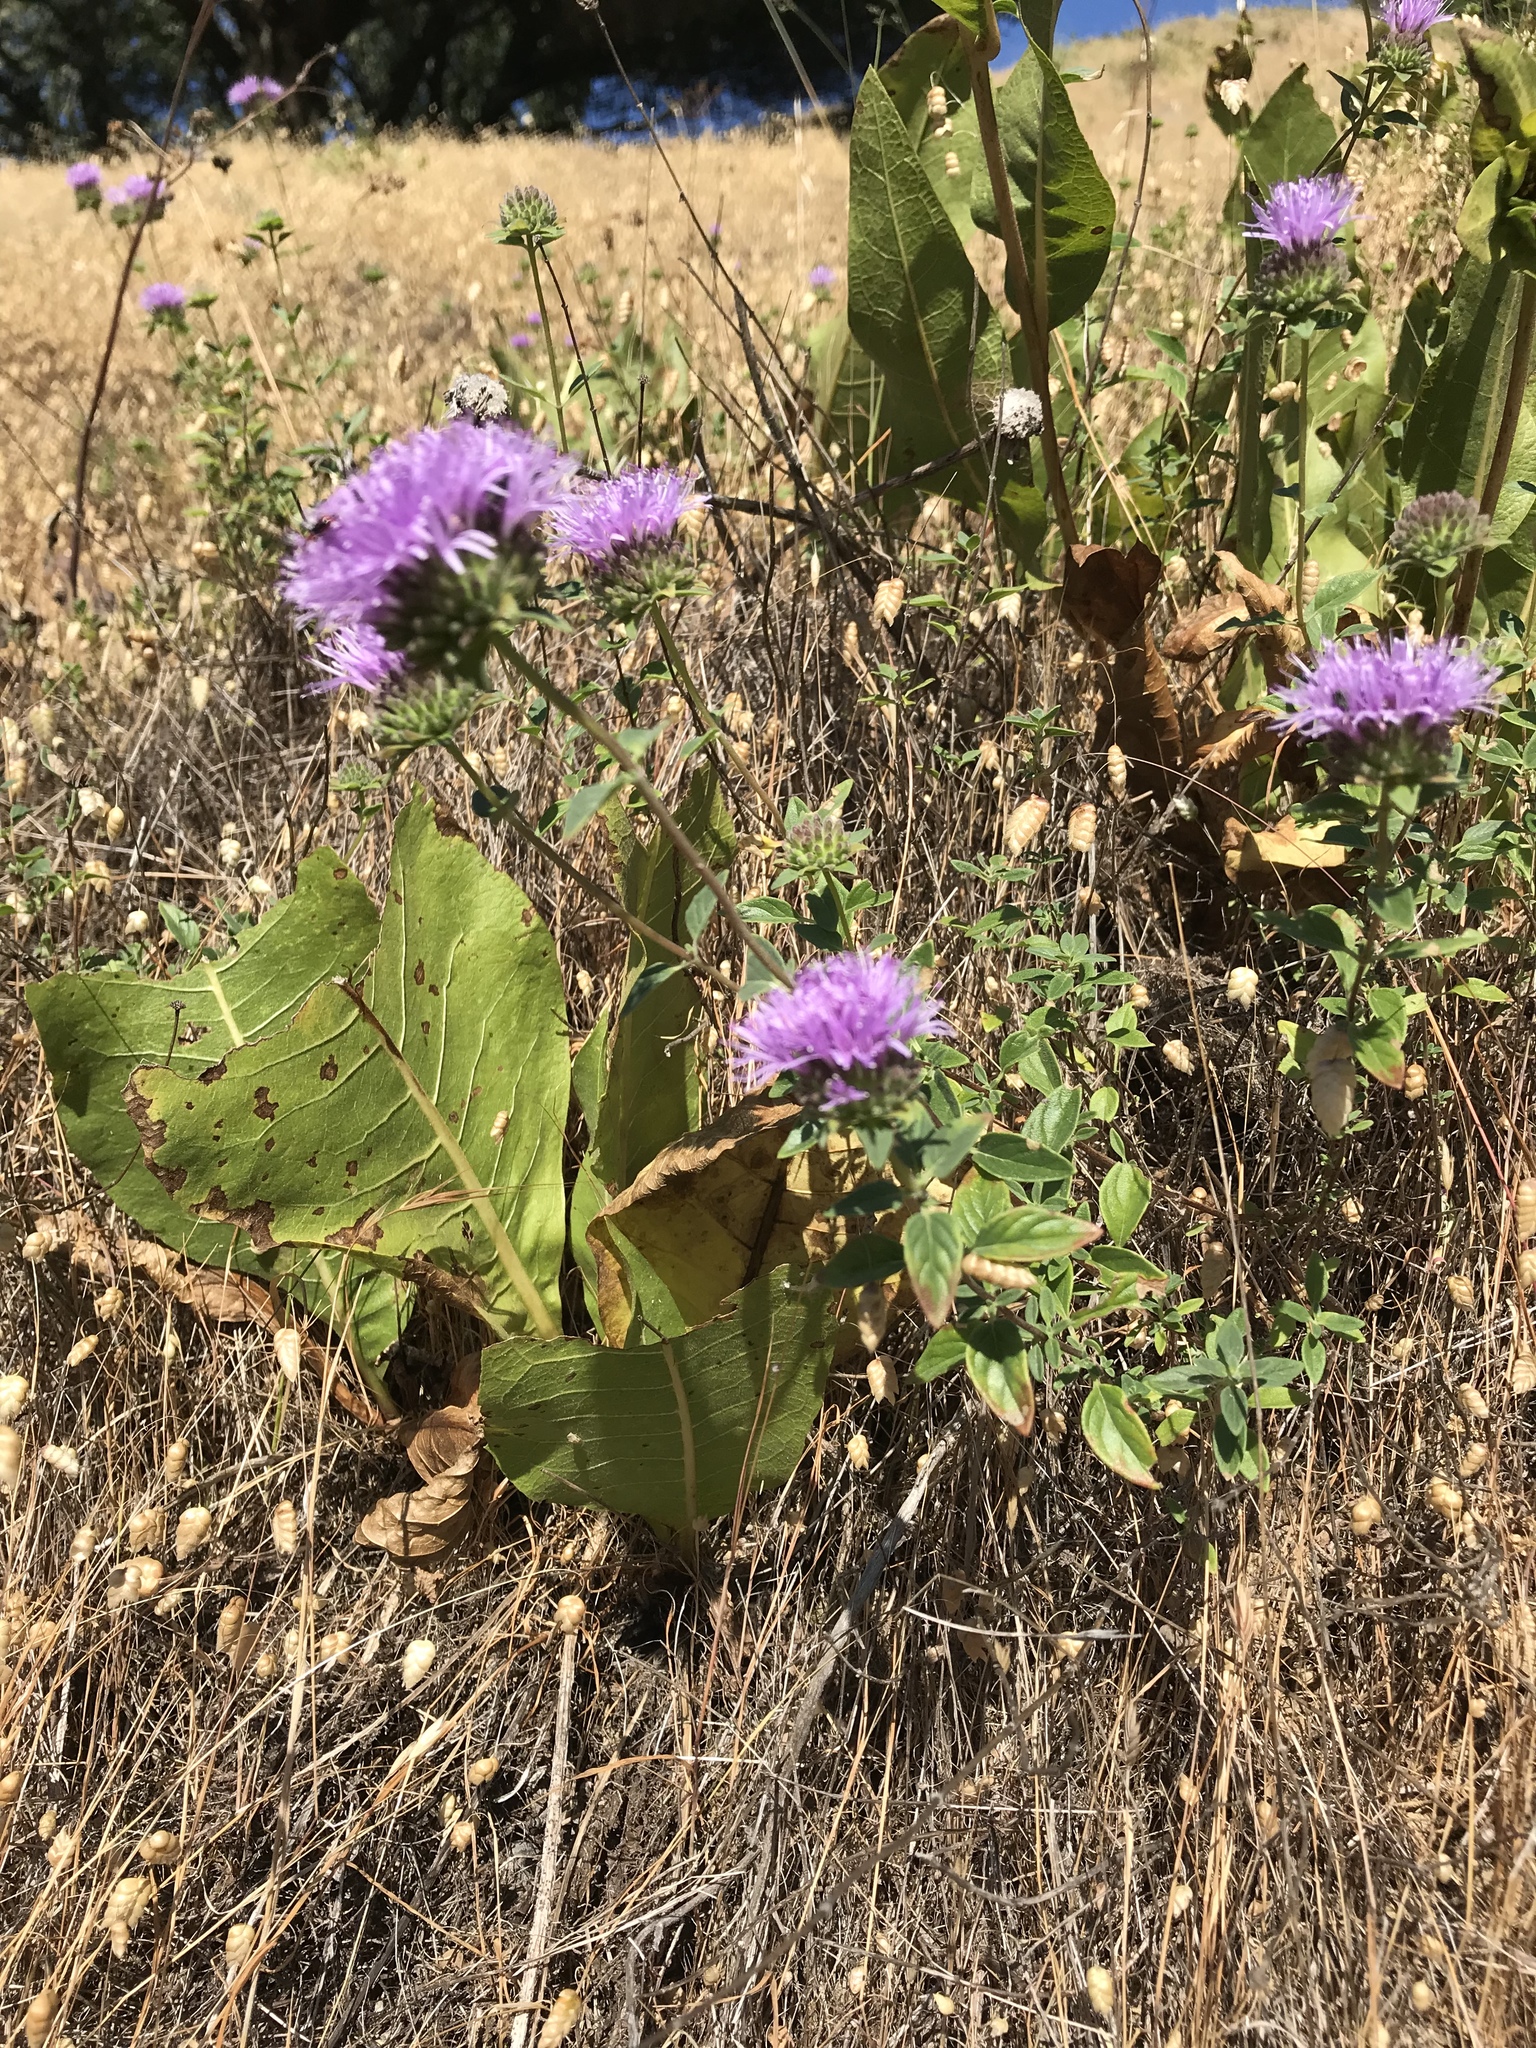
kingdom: Plantae
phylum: Tracheophyta
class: Magnoliopsida
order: Lamiales
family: Lamiaceae
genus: Monardella
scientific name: Monardella odoratissima
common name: Pacific monardella
